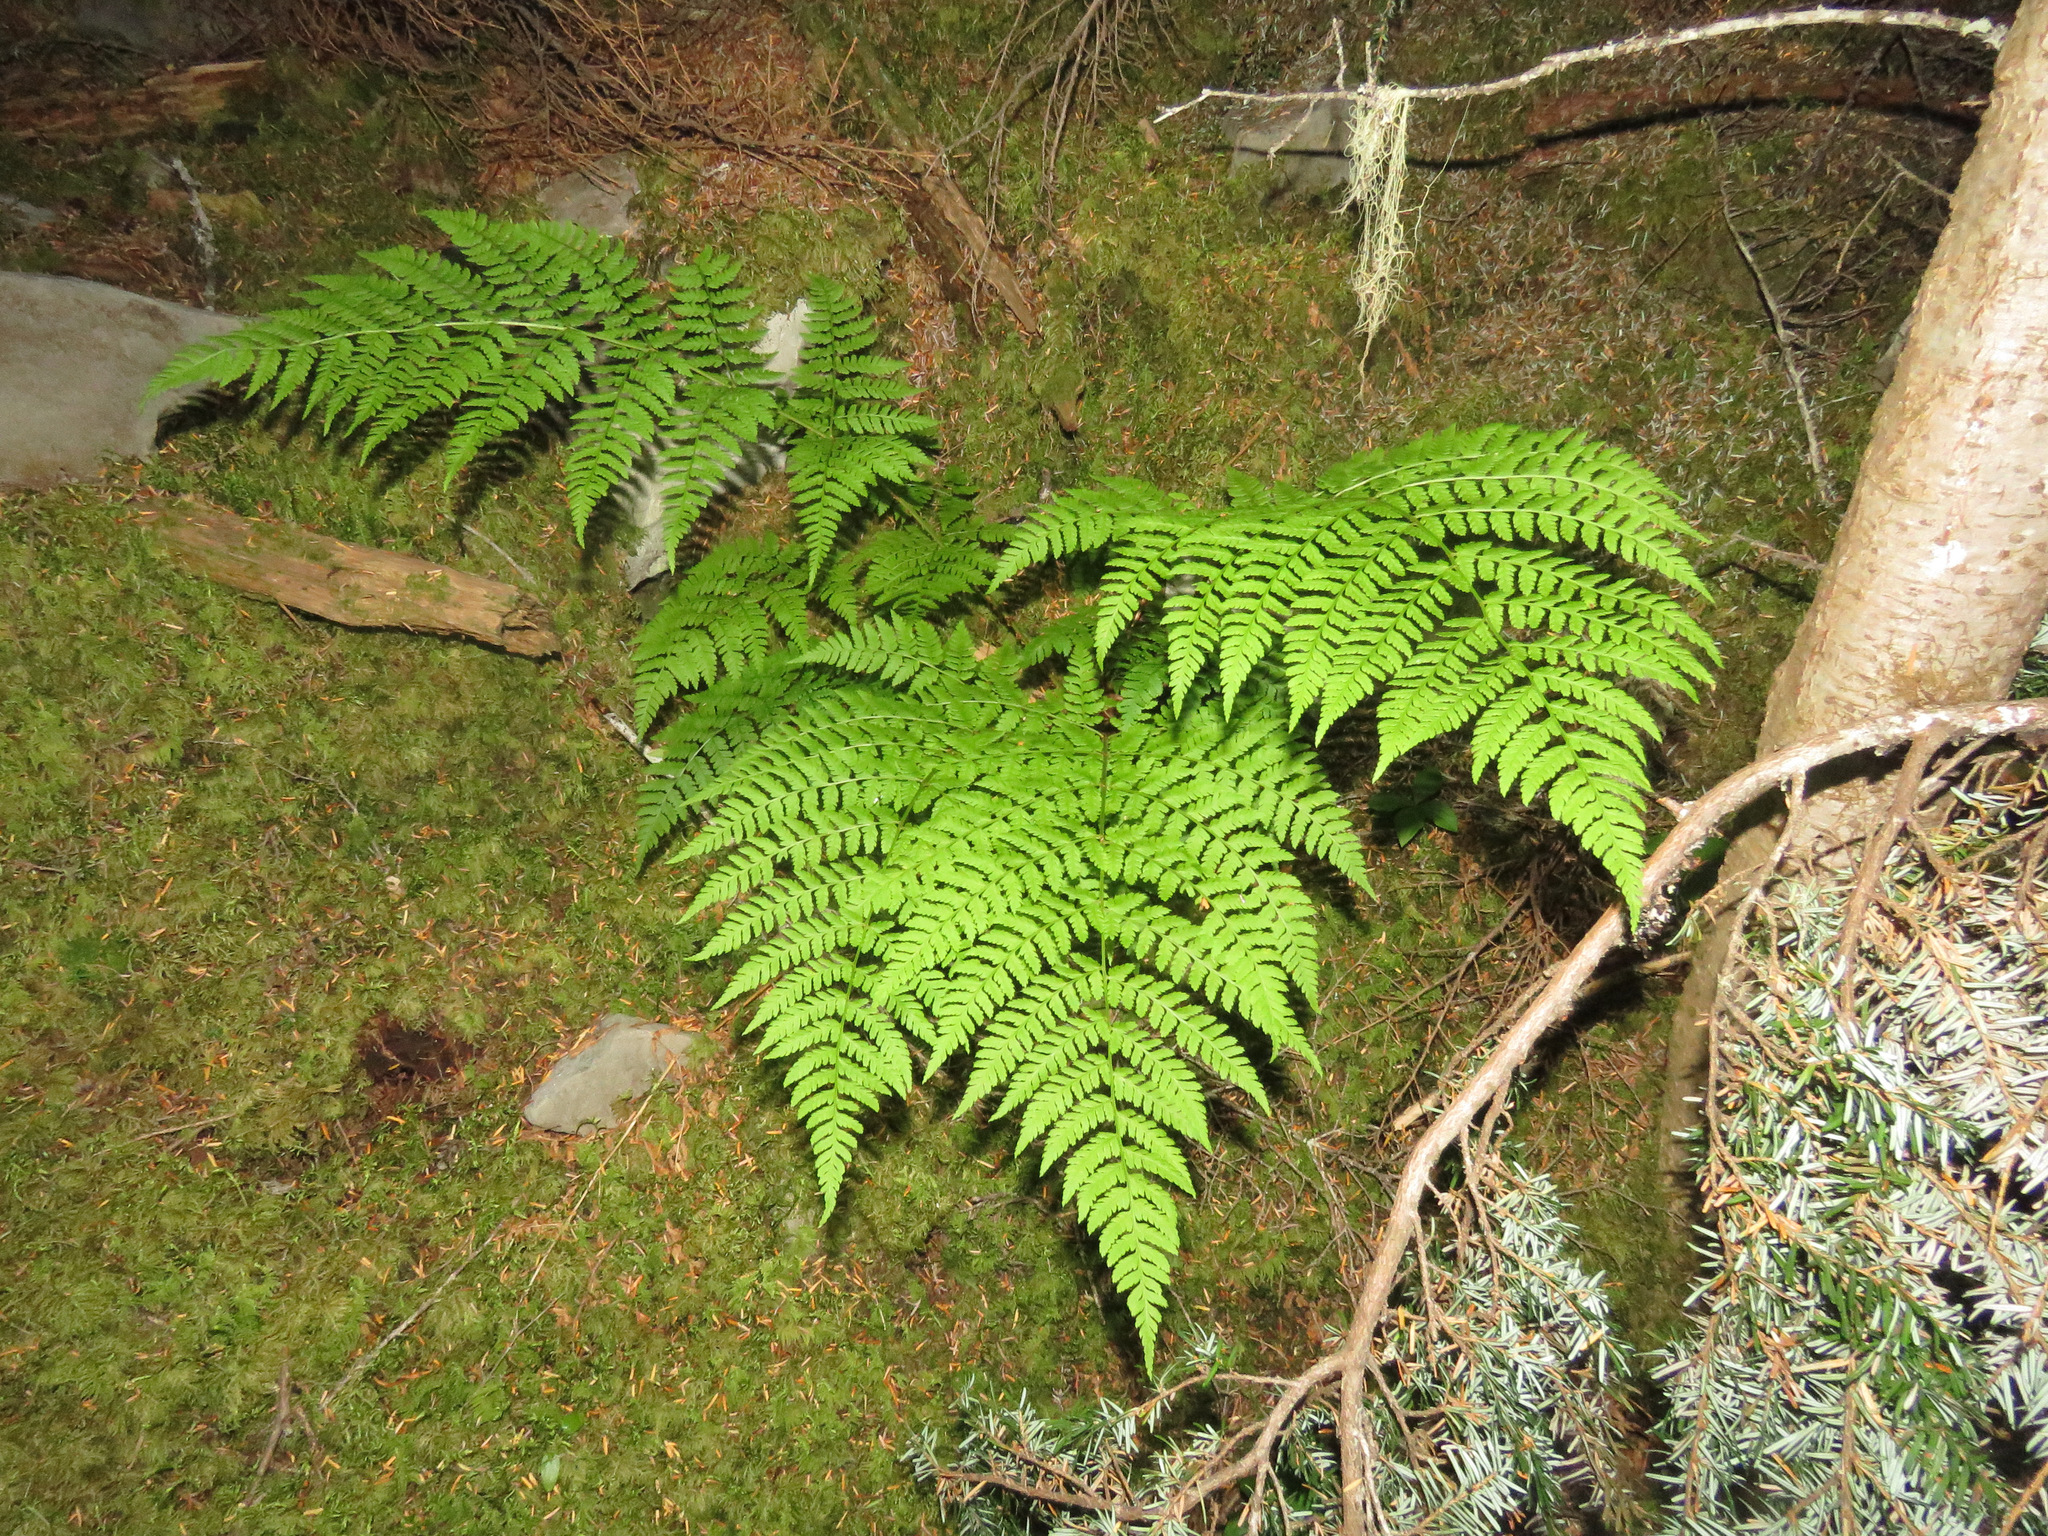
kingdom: Plantae
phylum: Tracheophyta
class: Polypodiopsida
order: Polypodiales
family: Dryopteridaceae
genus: Dryopteris
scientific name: Dryopteris expansa
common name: Northern buckler fern
